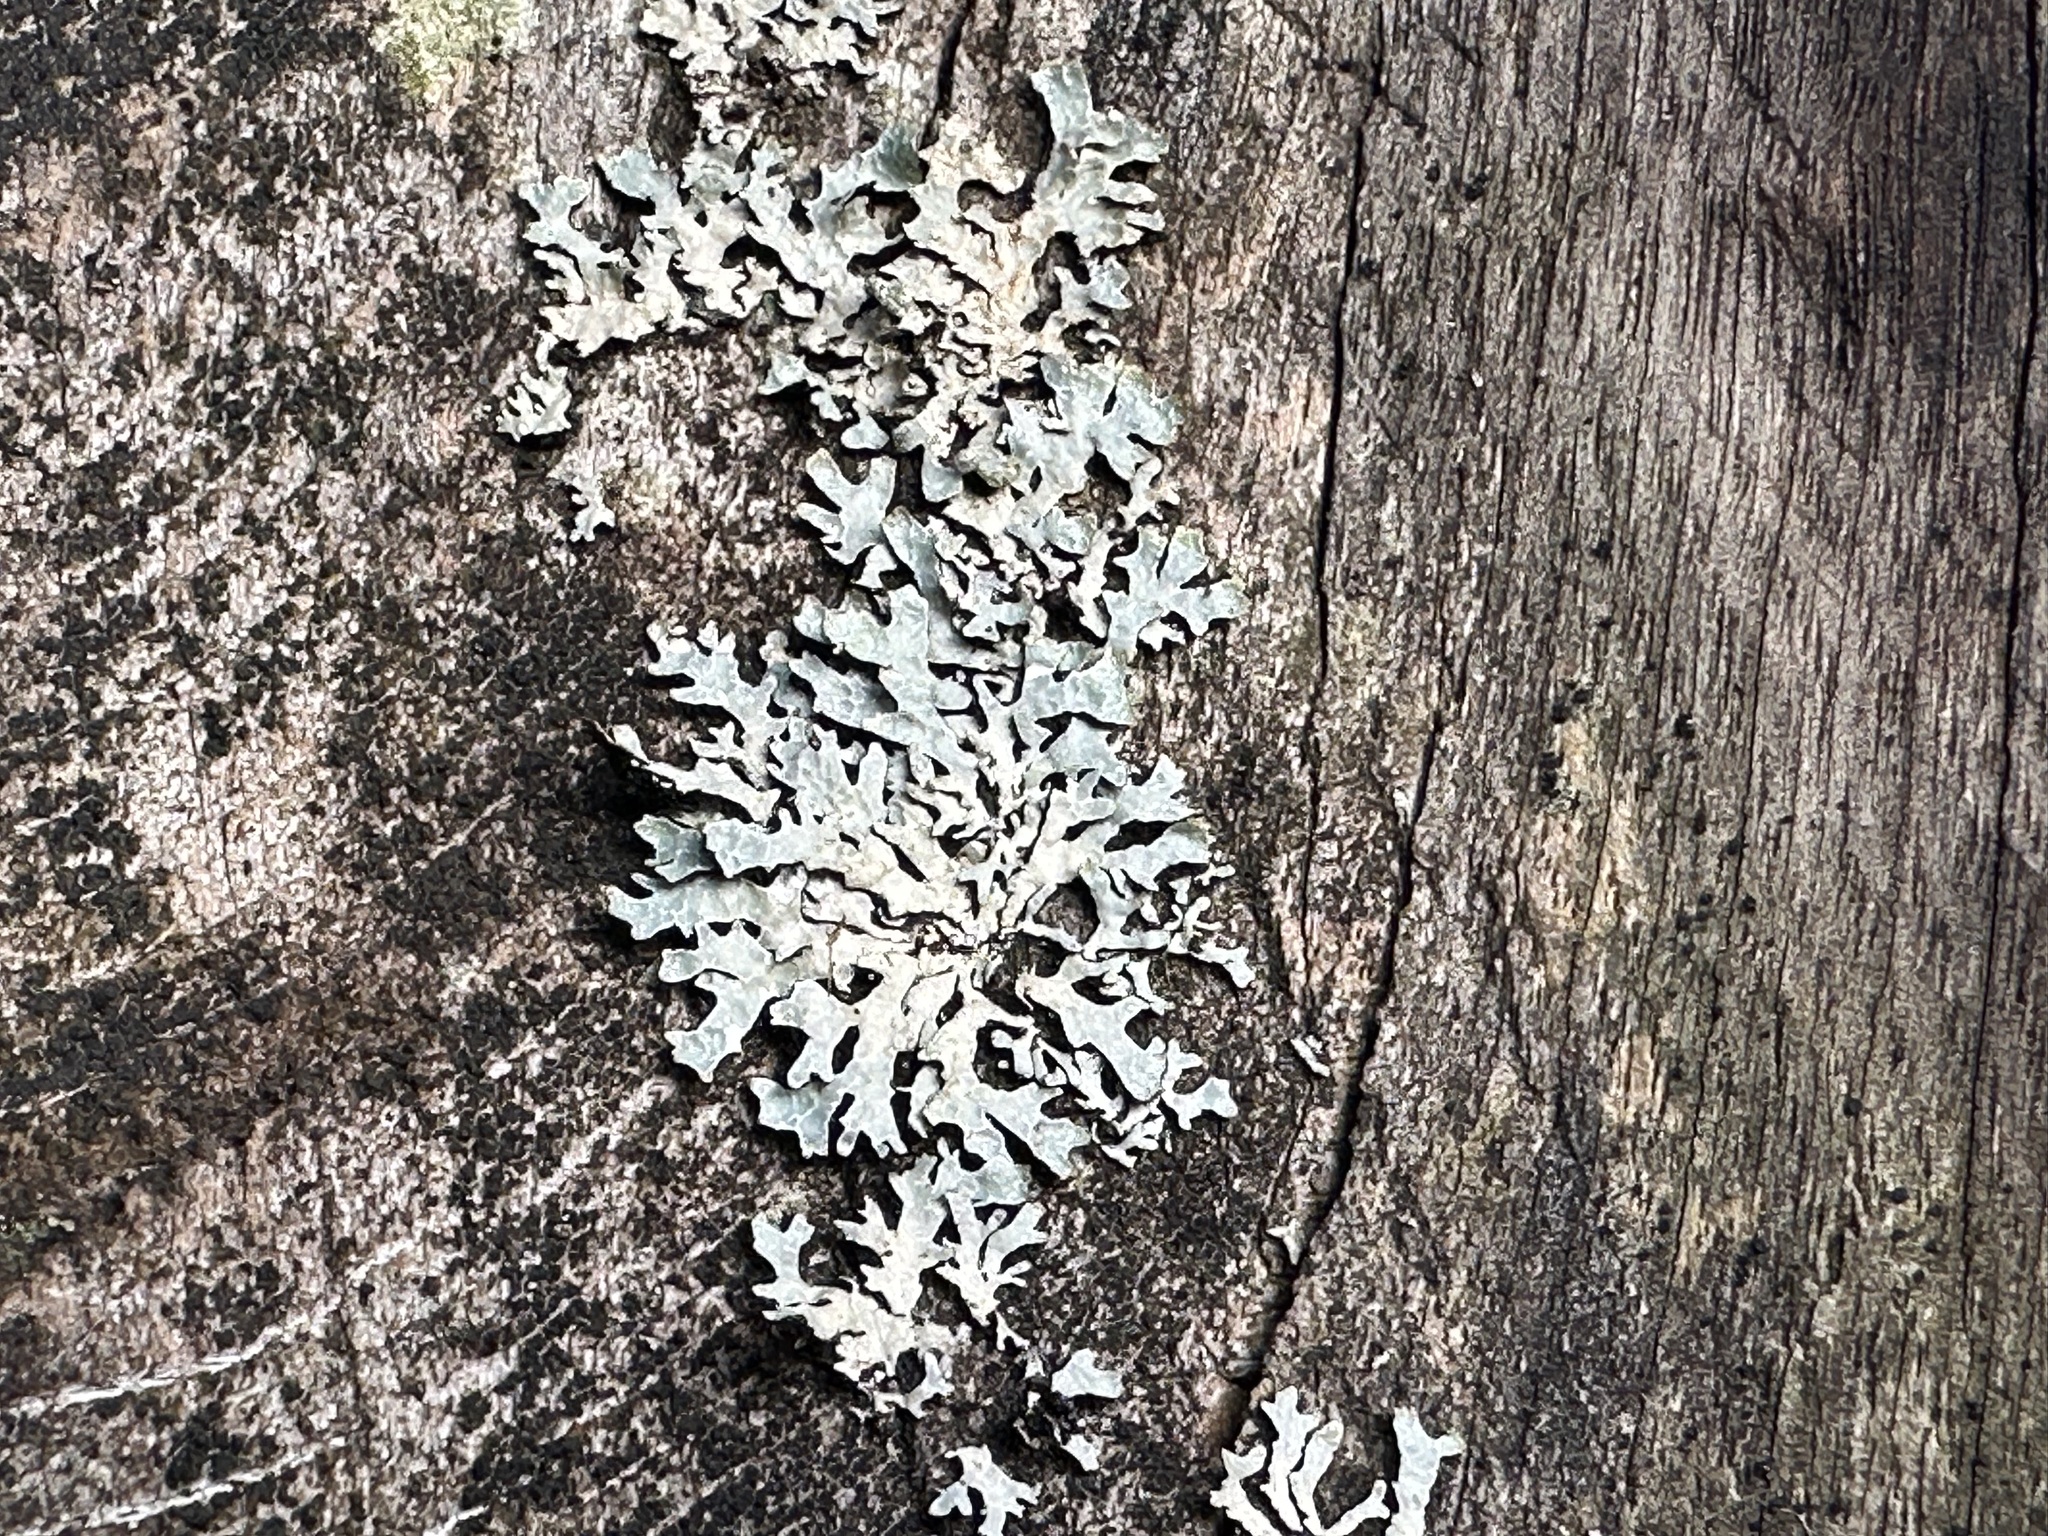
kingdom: Fungi
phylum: Ascomycota
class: Lecanoromycetes
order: Lecanorales
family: Parmeliaceae
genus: Parmelia
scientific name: Parmelia sulcata
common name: Netted shield lichen
